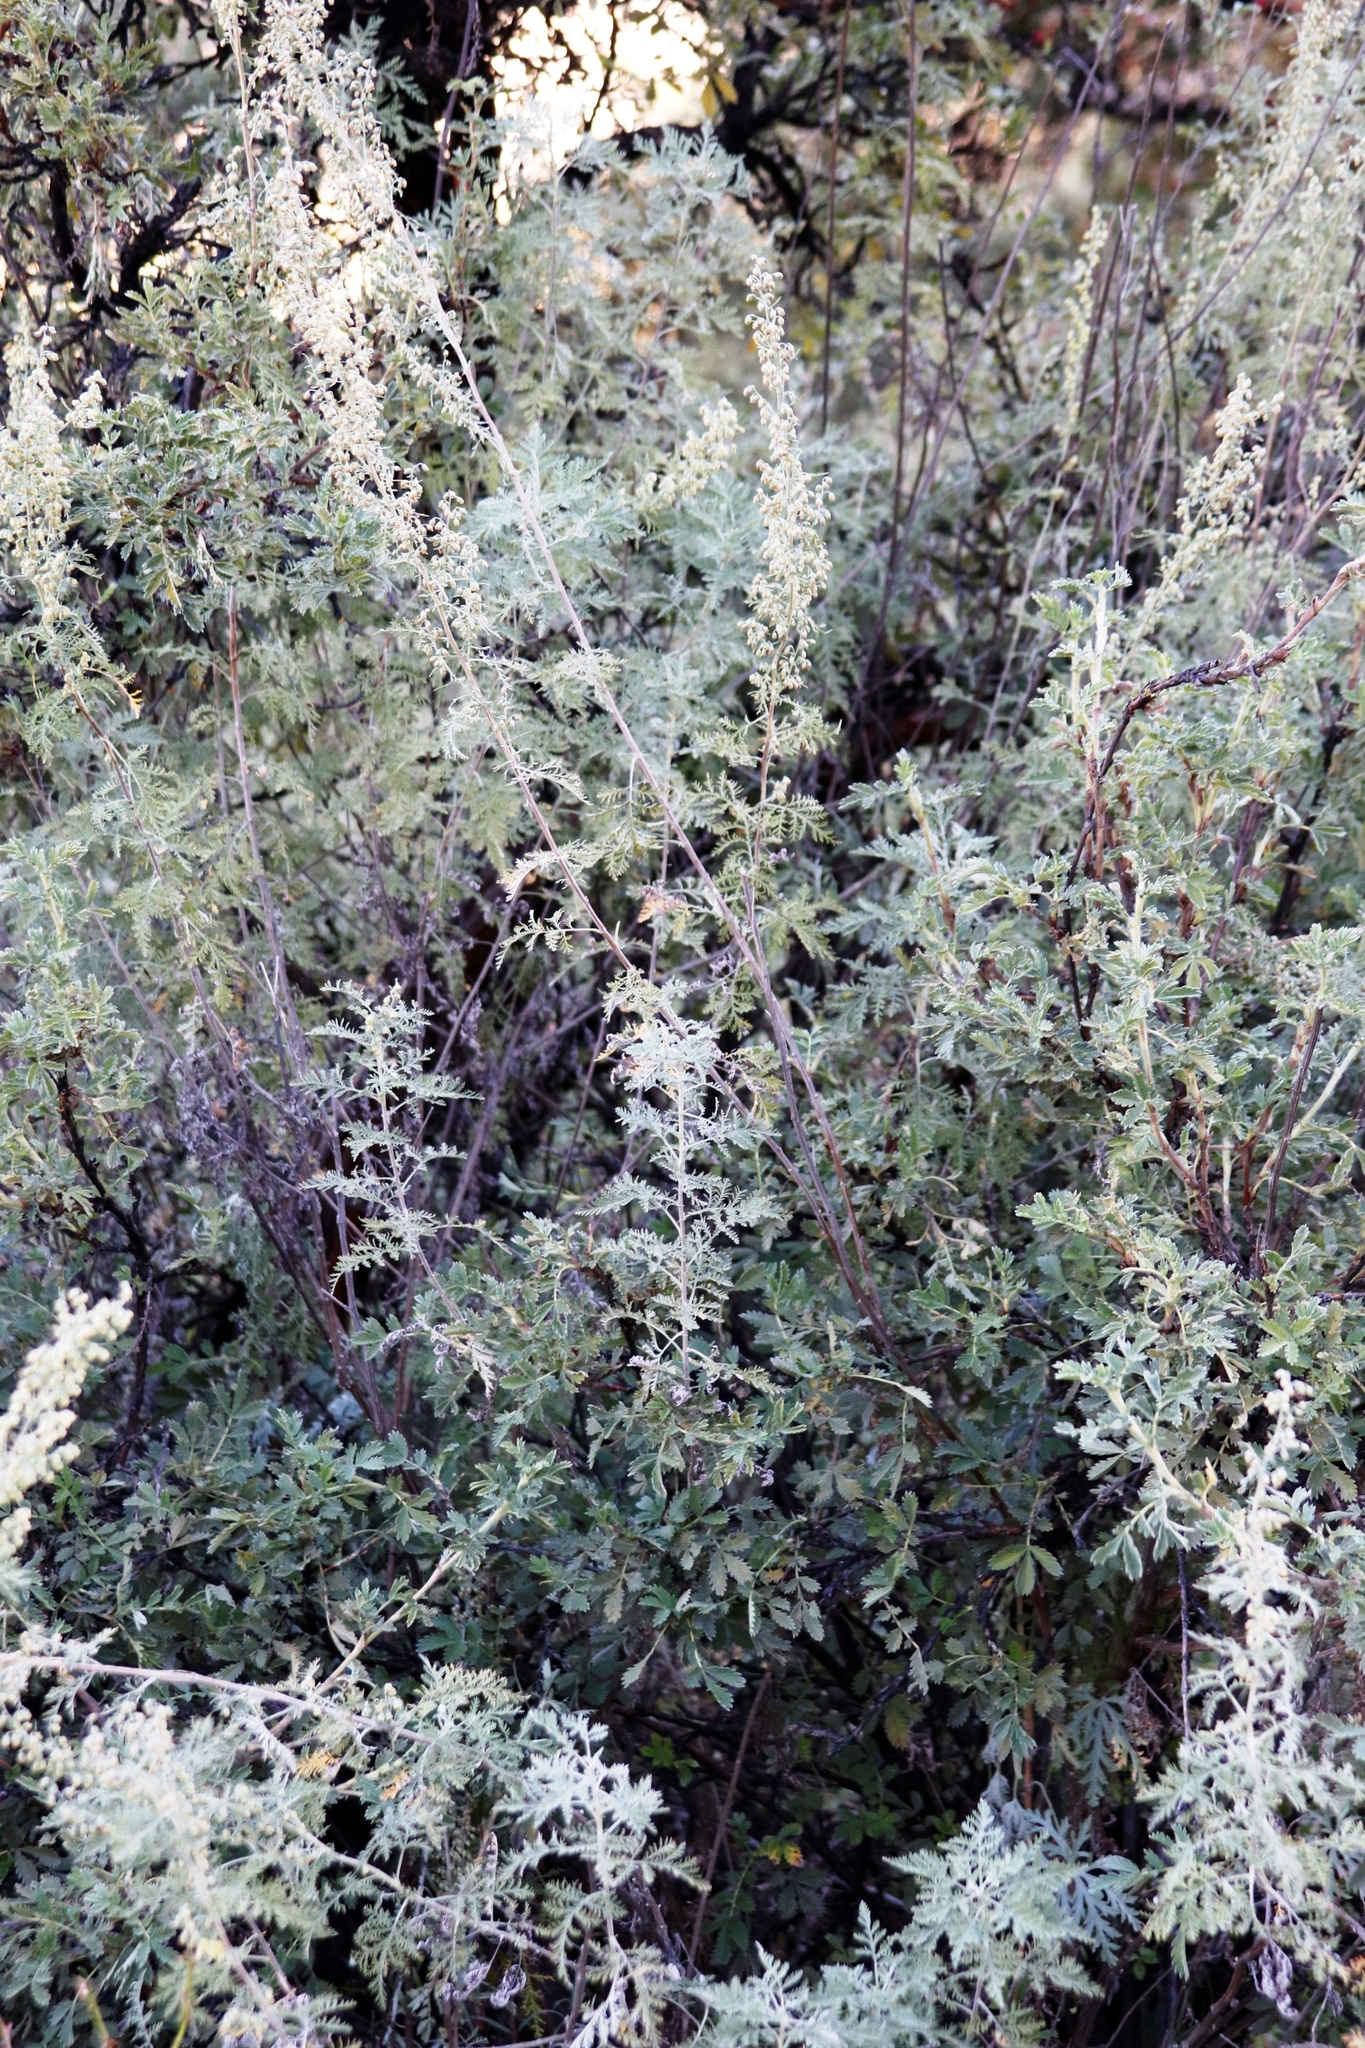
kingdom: Plantae
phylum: Tracheophyta
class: Magnoliopsida
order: Asterales
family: Asteraceae
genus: Artemisia
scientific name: Artemisia afra
